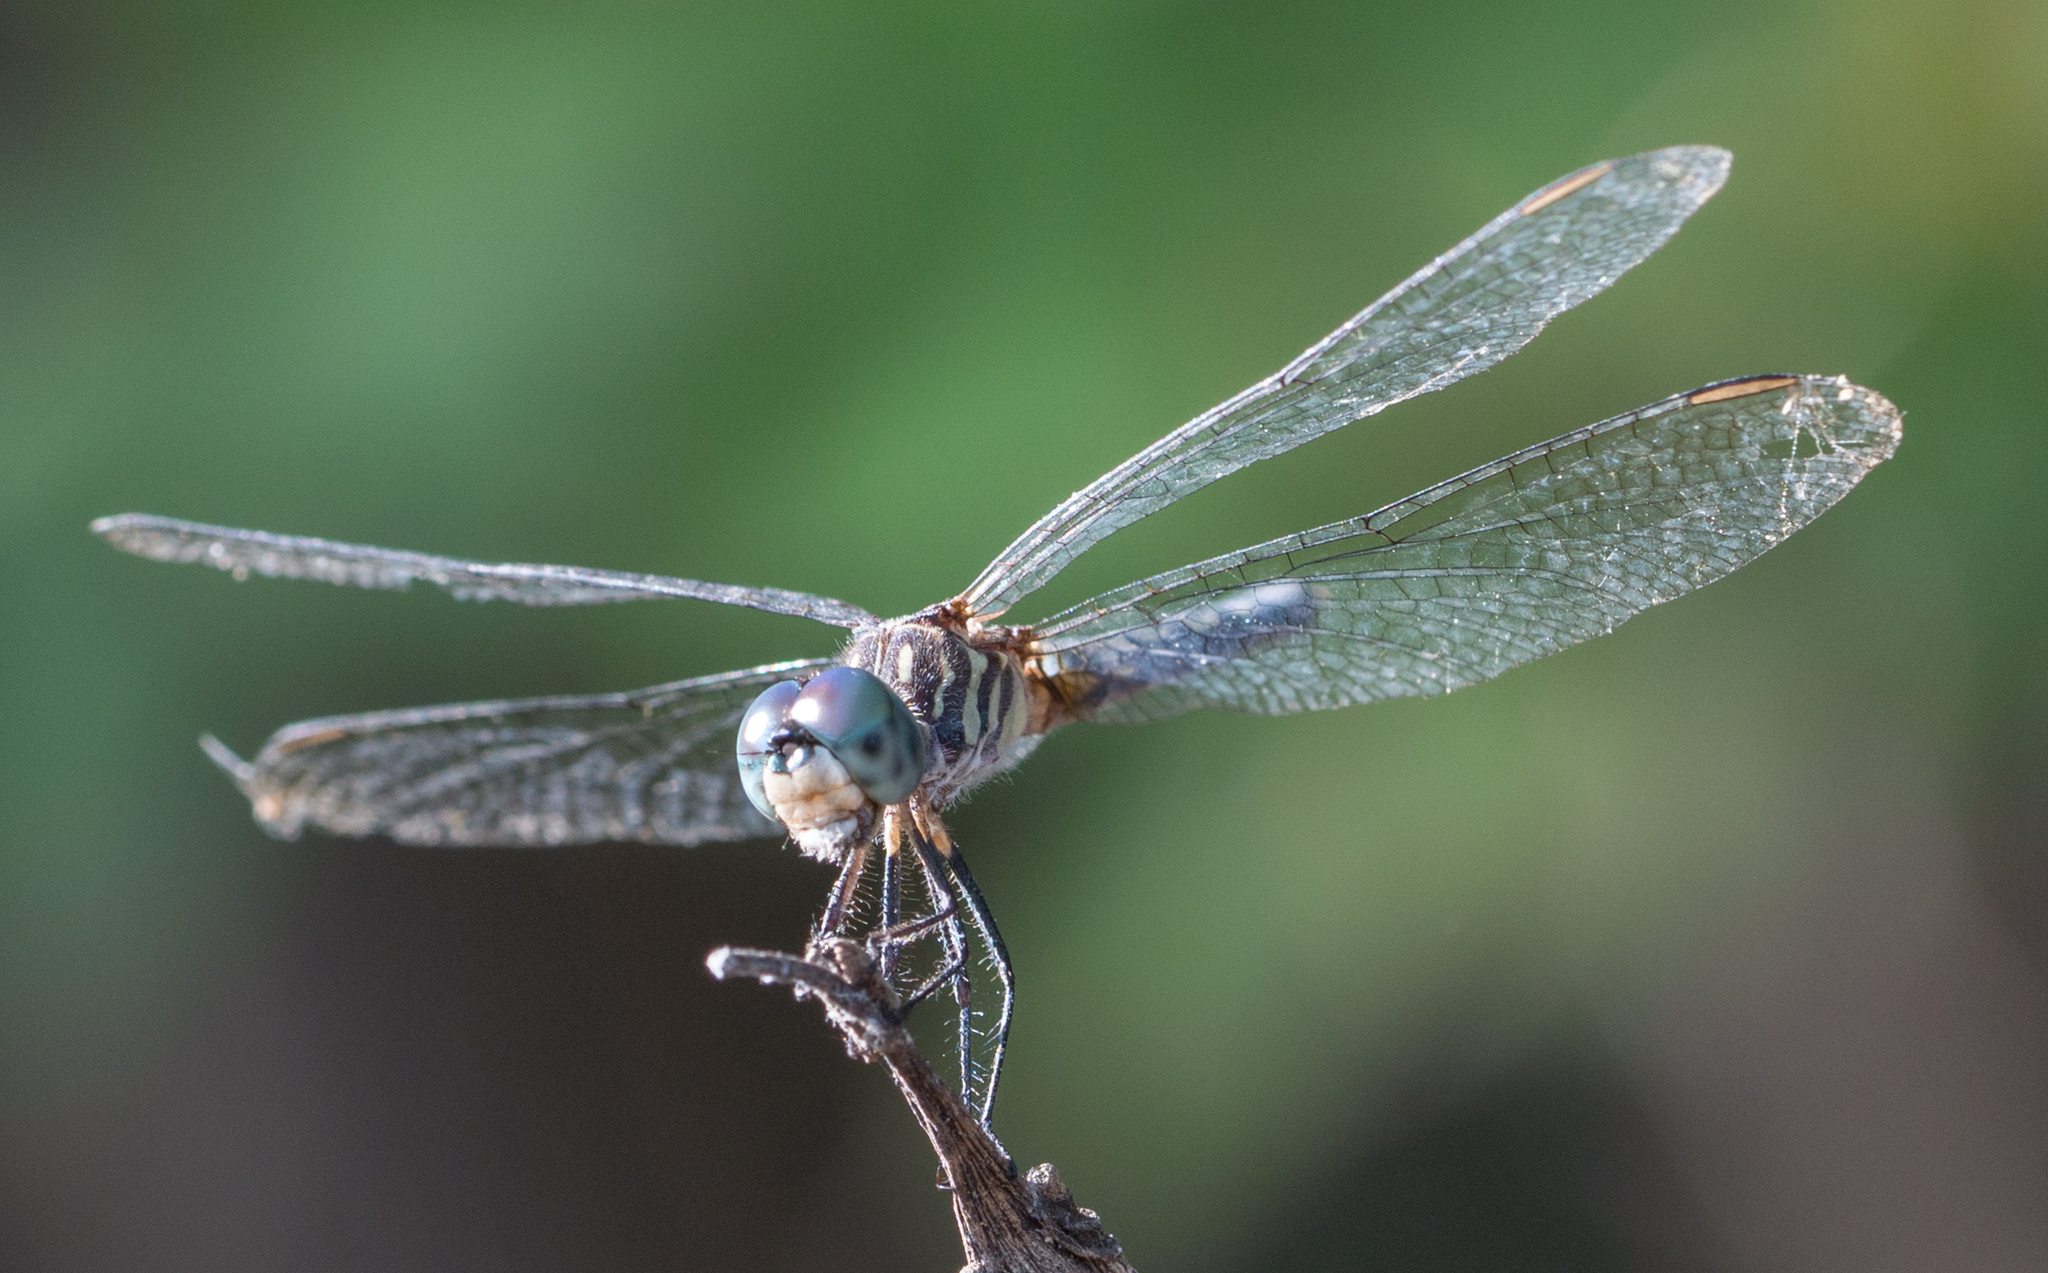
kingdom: Animalia
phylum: Arthropoda
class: Insecta
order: Odonata
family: Libellulidae
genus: Pachydiplax
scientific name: Pachydiplax longipennis
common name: Blue dasher
